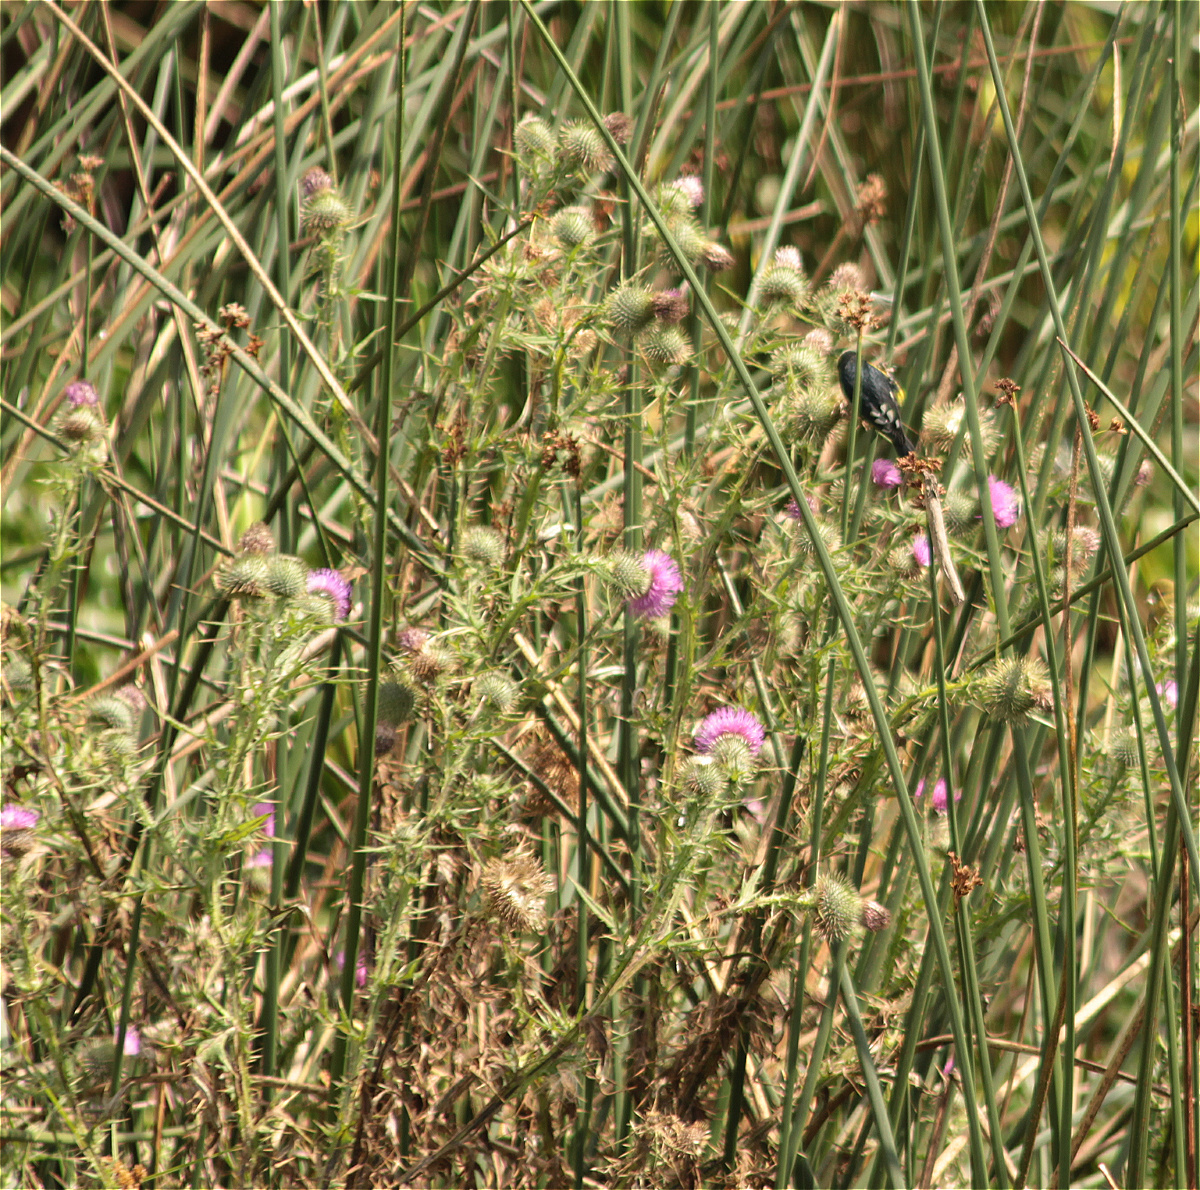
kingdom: Plantae
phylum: Tracheophyta
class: Magnoliopsida
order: Asterales
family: Asteraceae
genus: Cirsium
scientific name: Cirsium vulgare
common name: Bull thistle
